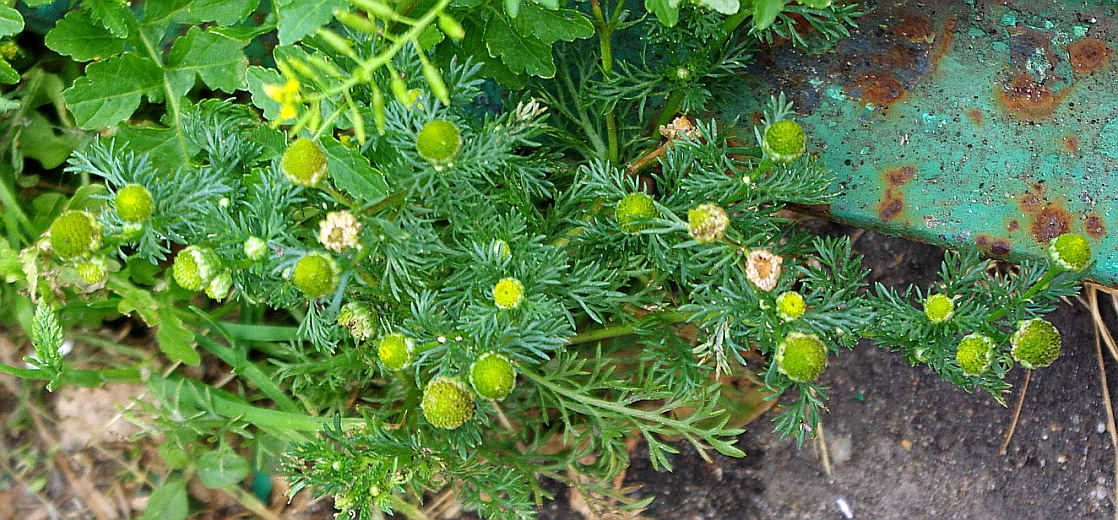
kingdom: Plantae
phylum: Tracheophyta
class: Magnoliopsida
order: Asterales
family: Asteraceae
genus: Matricaria
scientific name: Matricaria discoidea
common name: Disc mayweed
